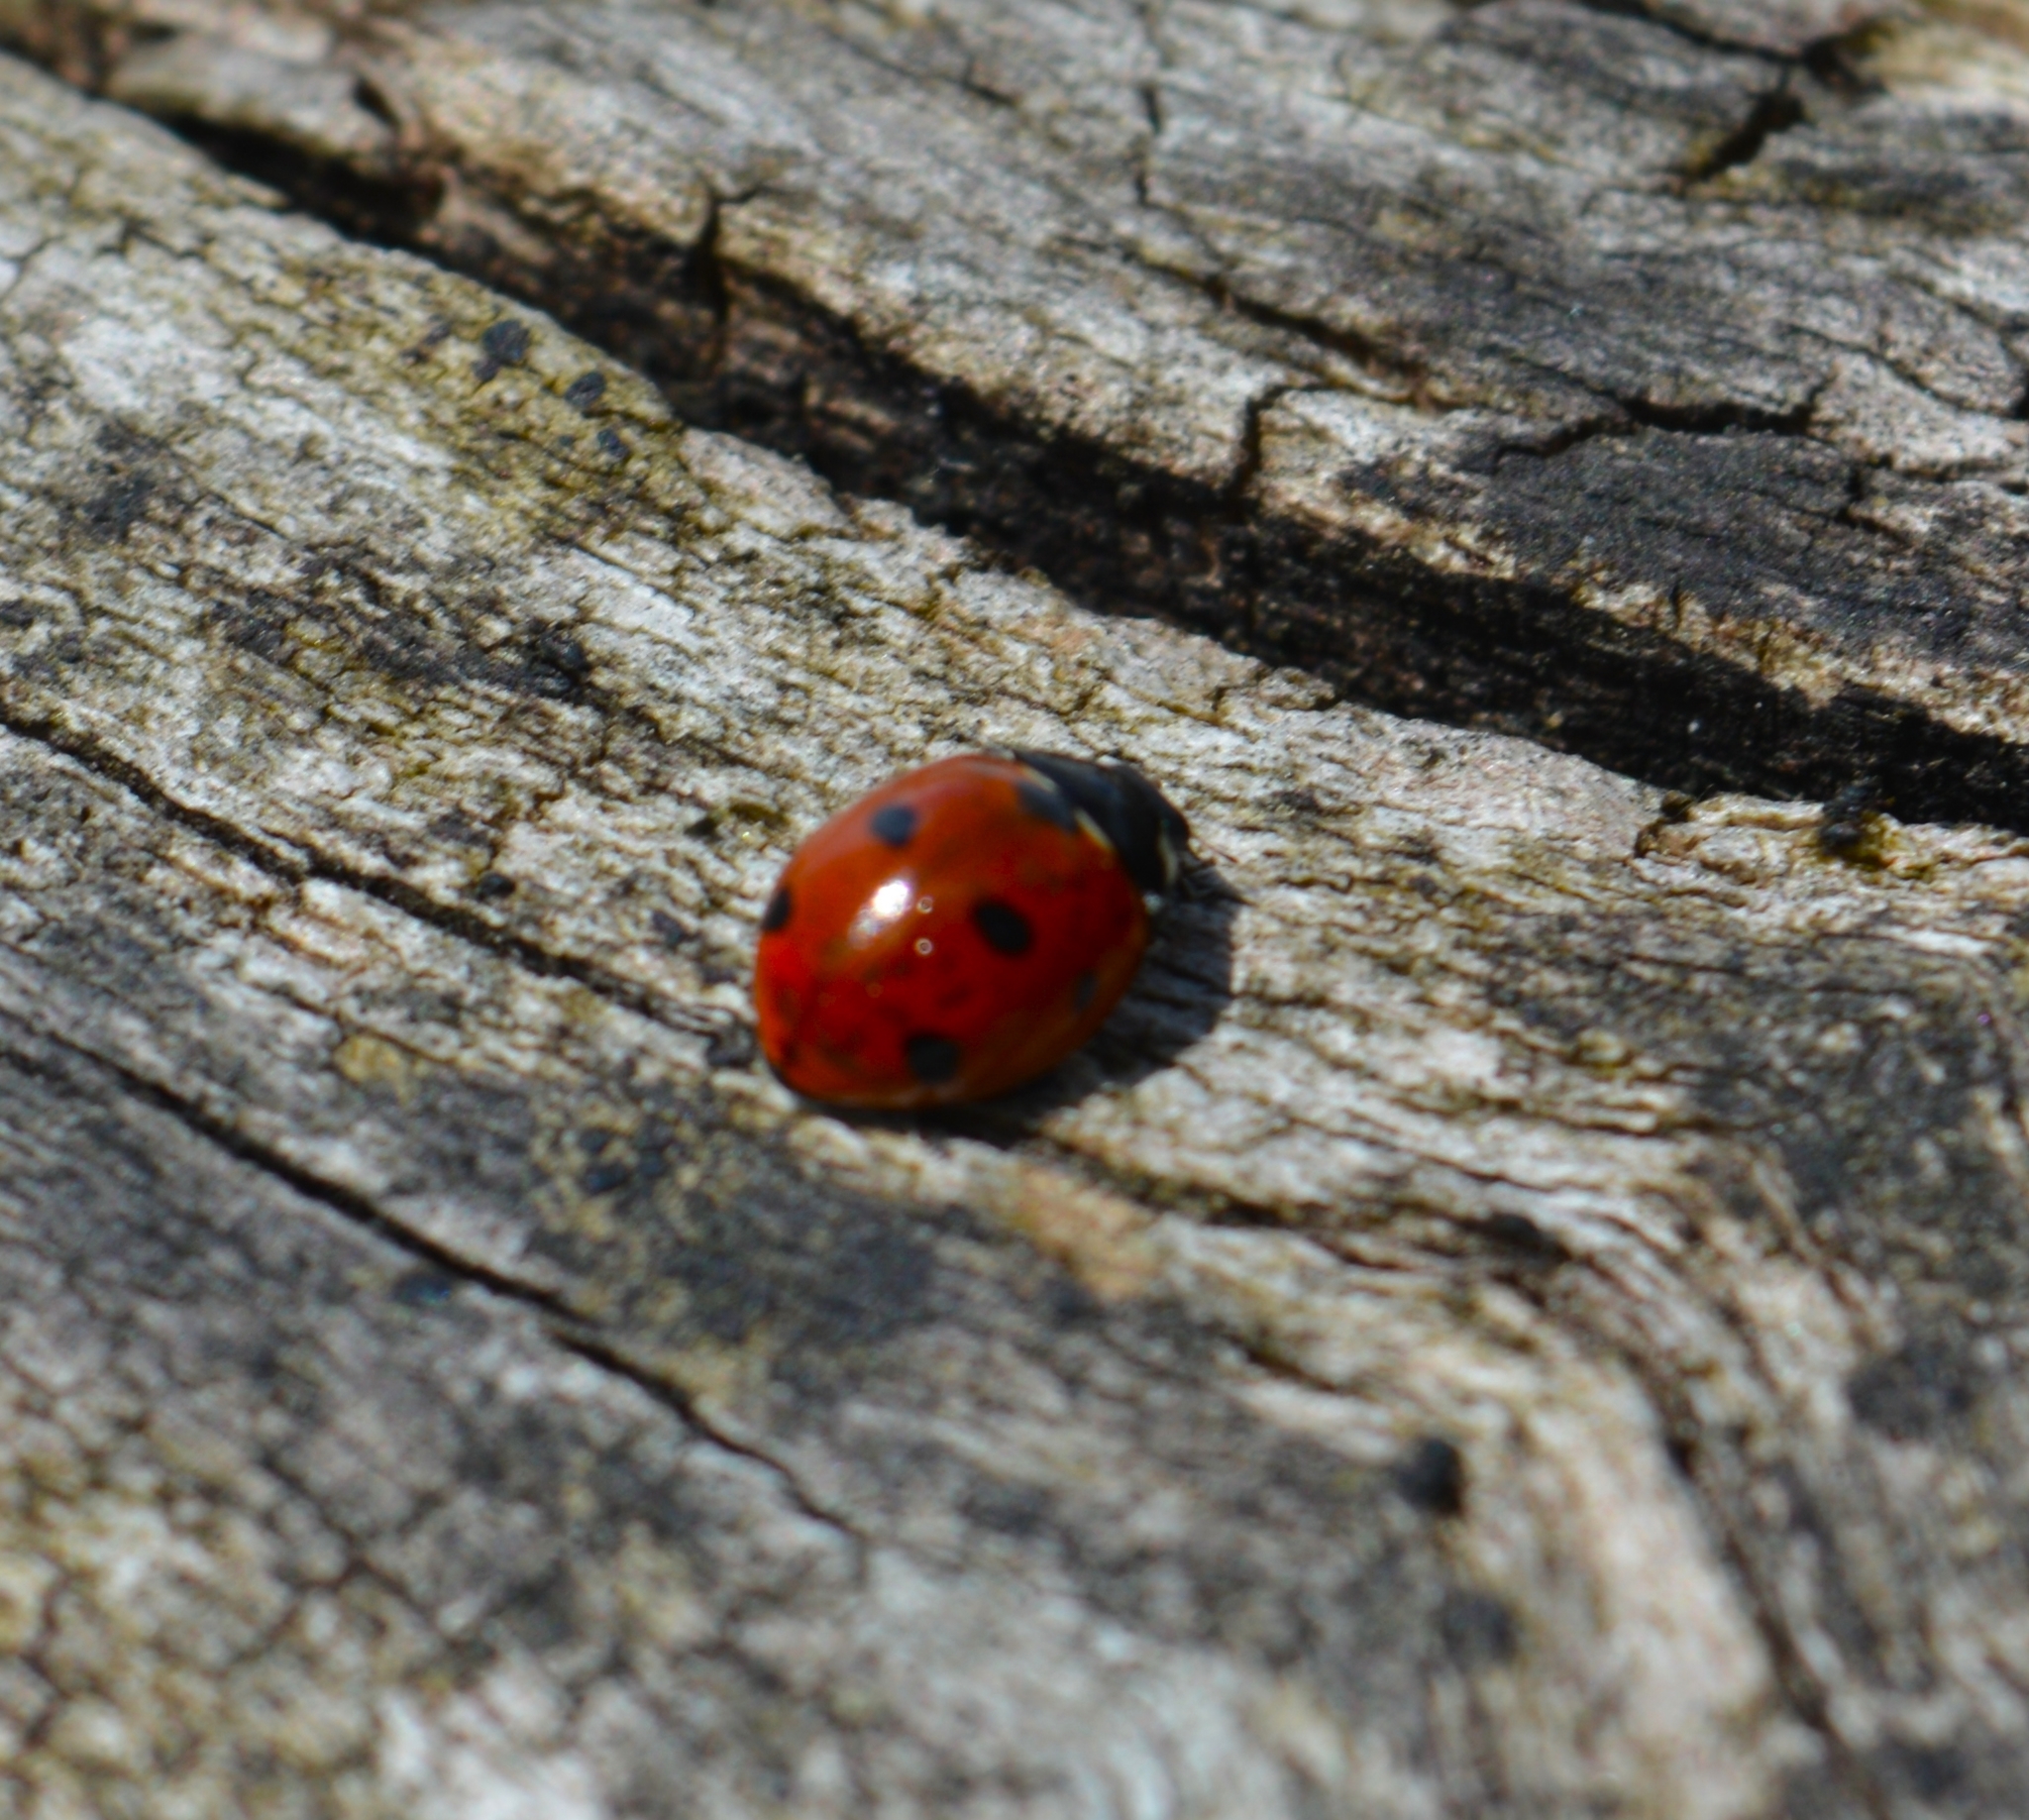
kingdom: Animalia
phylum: Arthropoda
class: Insecta
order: Coleoptera
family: Coccinellidae
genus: Coccinella
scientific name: Coccinella septempunctata
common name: Sevenspotted lady beetle
